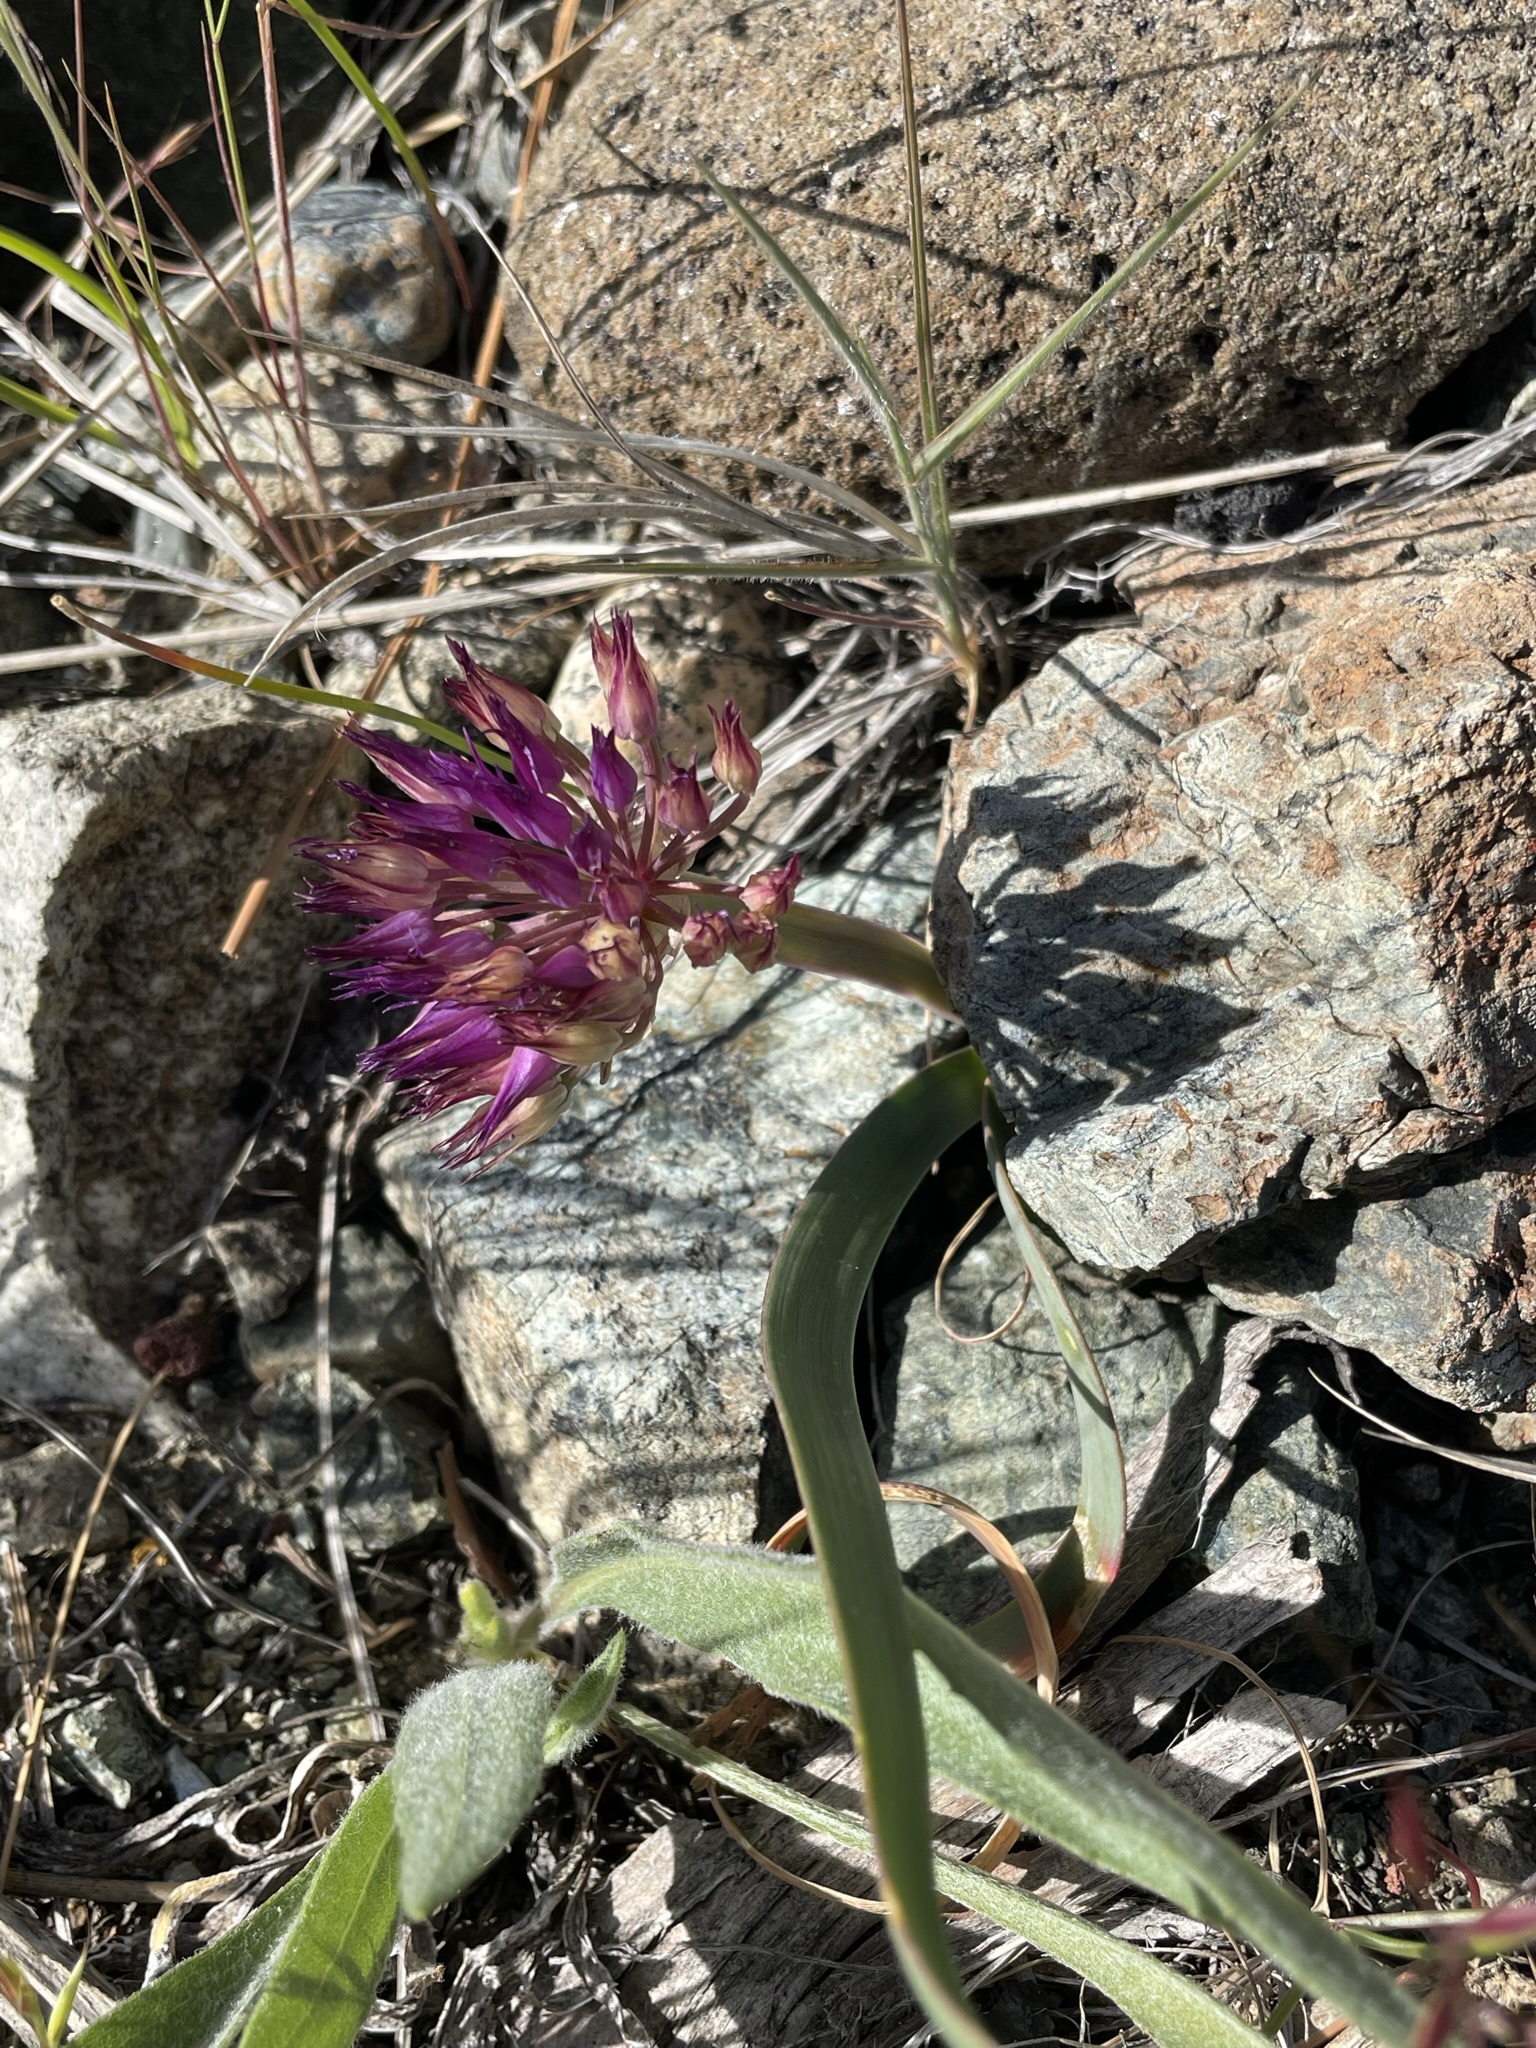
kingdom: Plantae
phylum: Tracheophyta
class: Liliopsida
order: Asparagales
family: Amaryllidaceae
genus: Allium
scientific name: Allium falcifolium
